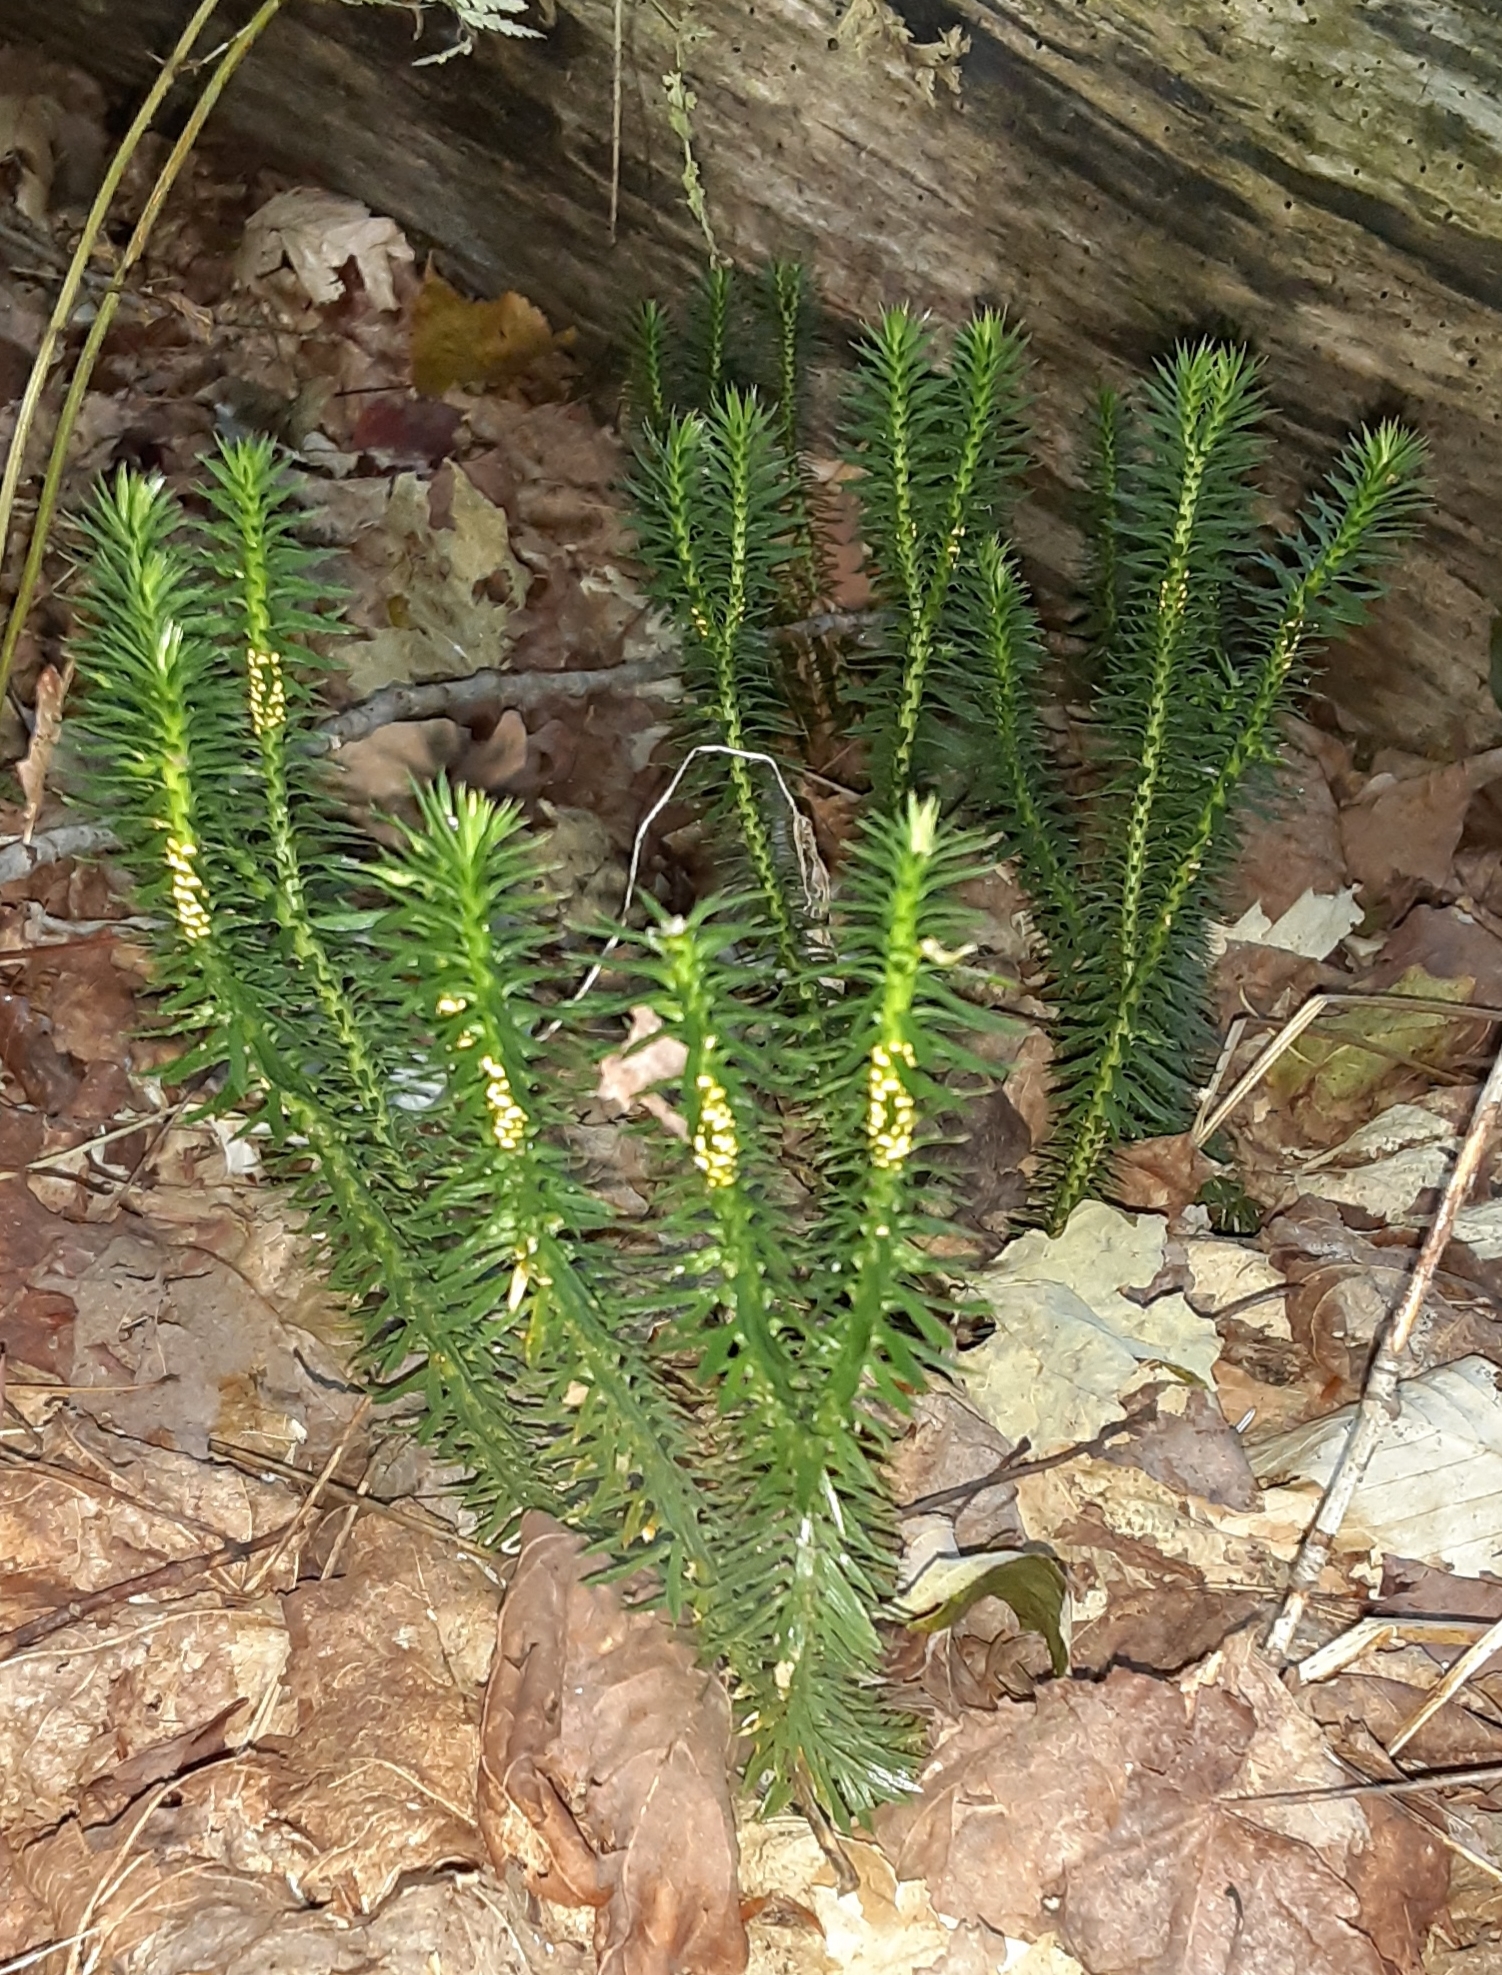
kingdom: Plantae
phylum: Tracheophyta
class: Lycopodiopsida
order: Lycopodiales
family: Lycopodiaceae
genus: Huperzia
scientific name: Huperzia lucidula
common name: Shining clubmoss
